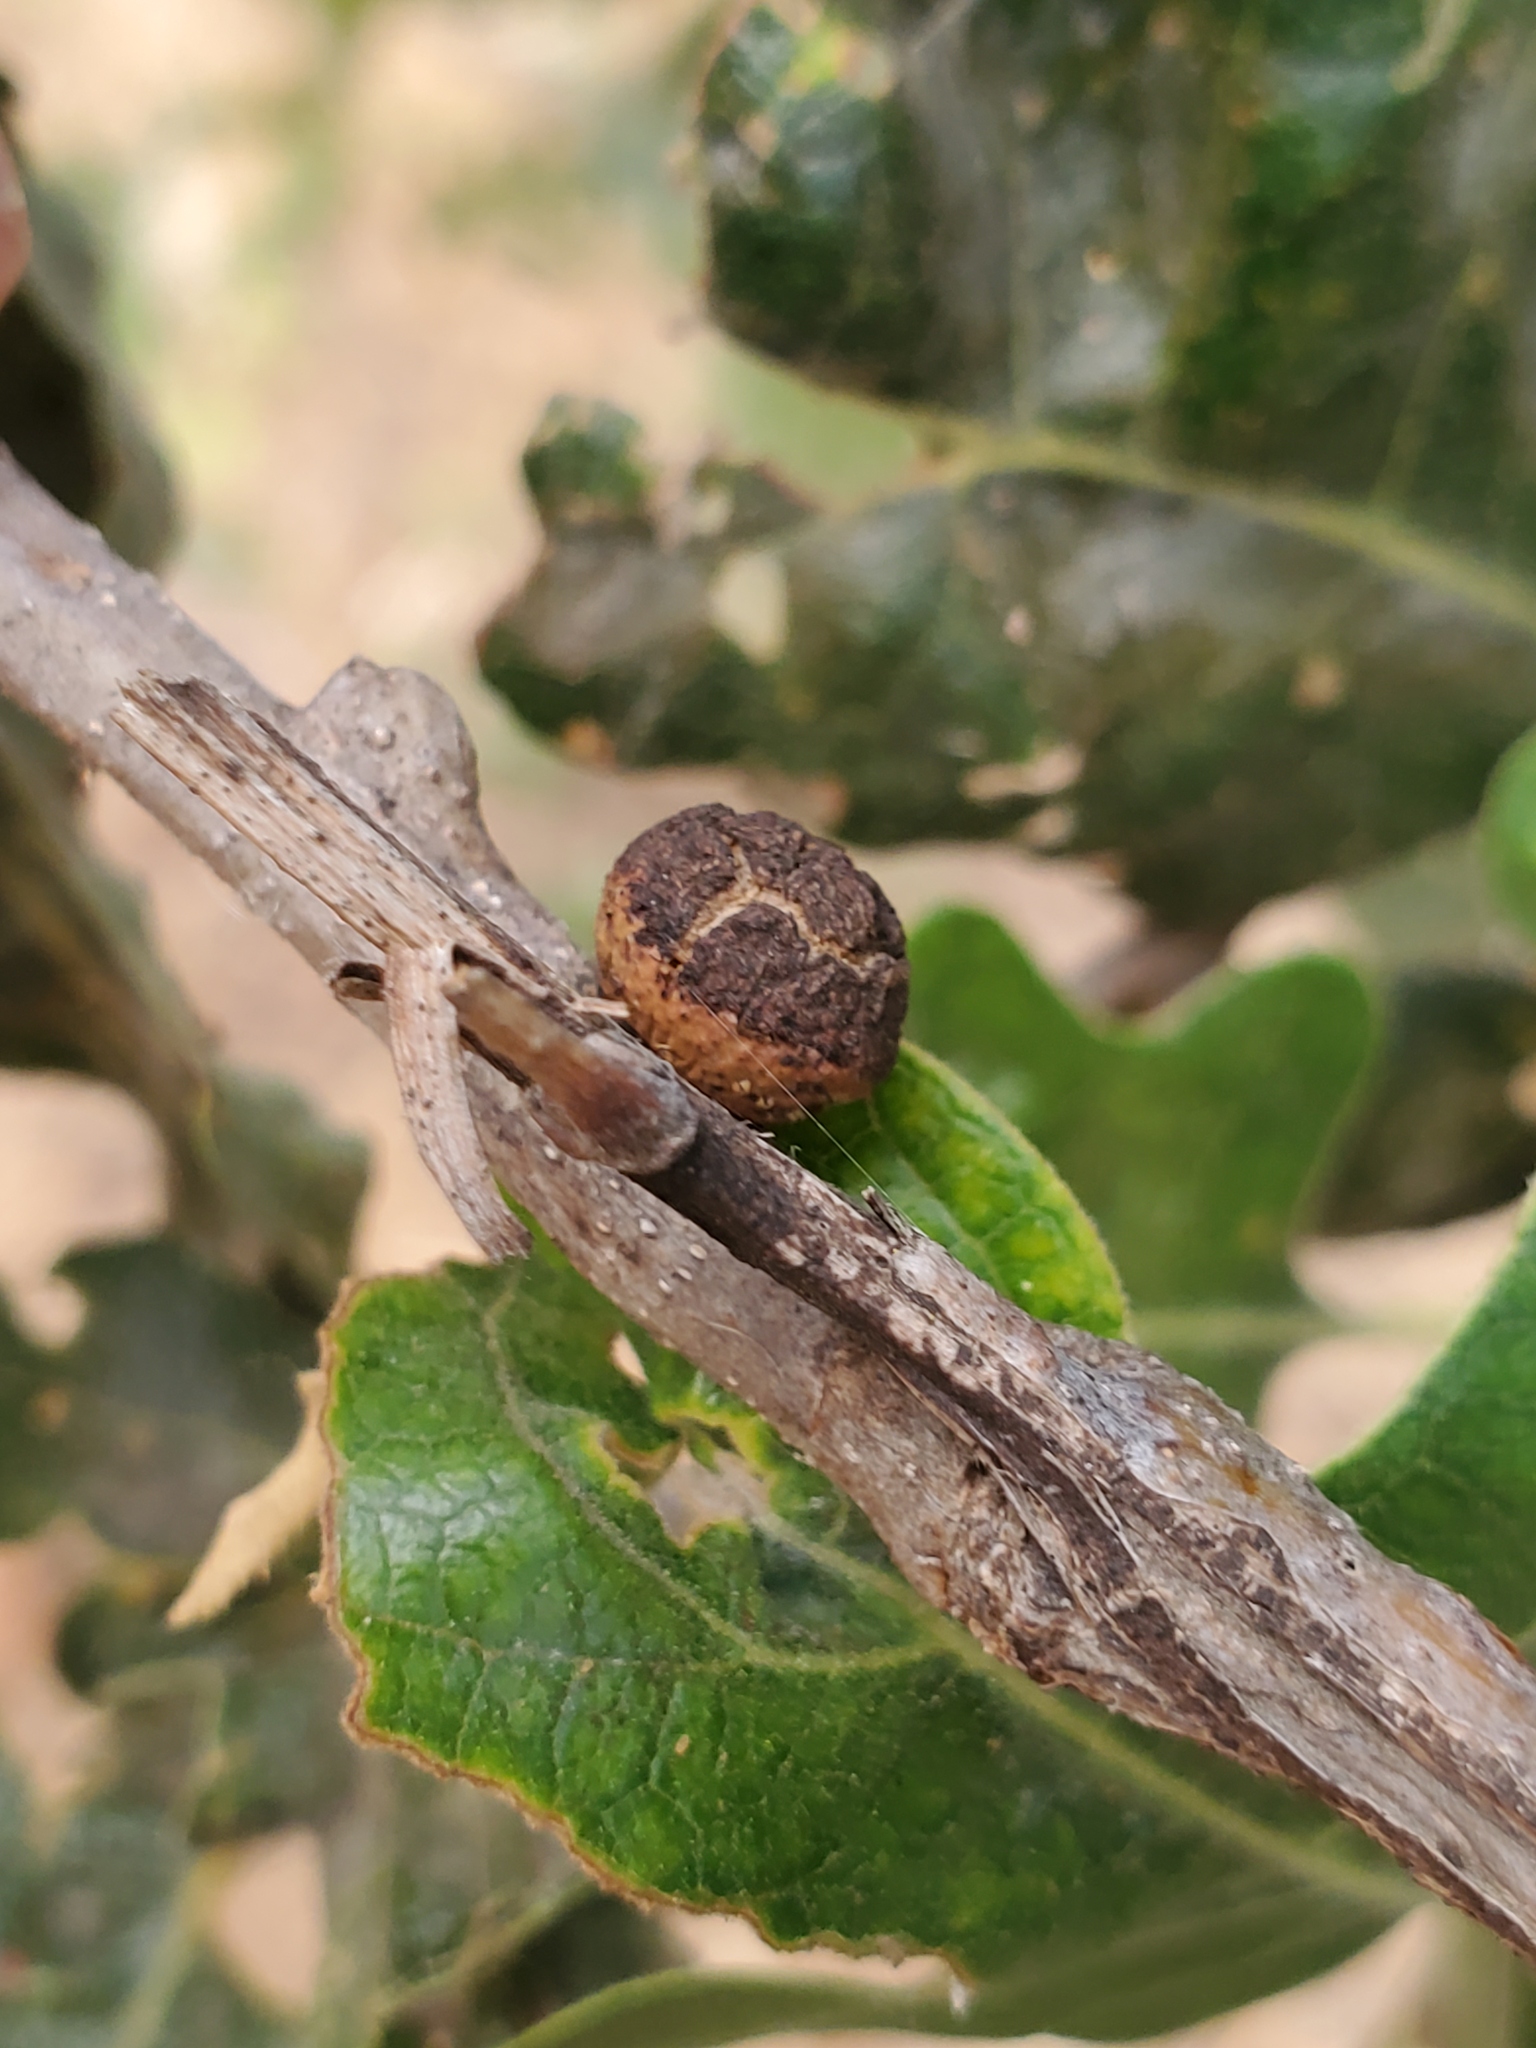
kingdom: Animalia
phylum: Arthropoda
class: Insecta
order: Hymenoptera
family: Cynipidae
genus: Disholcaspis
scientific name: Disholcaspis
